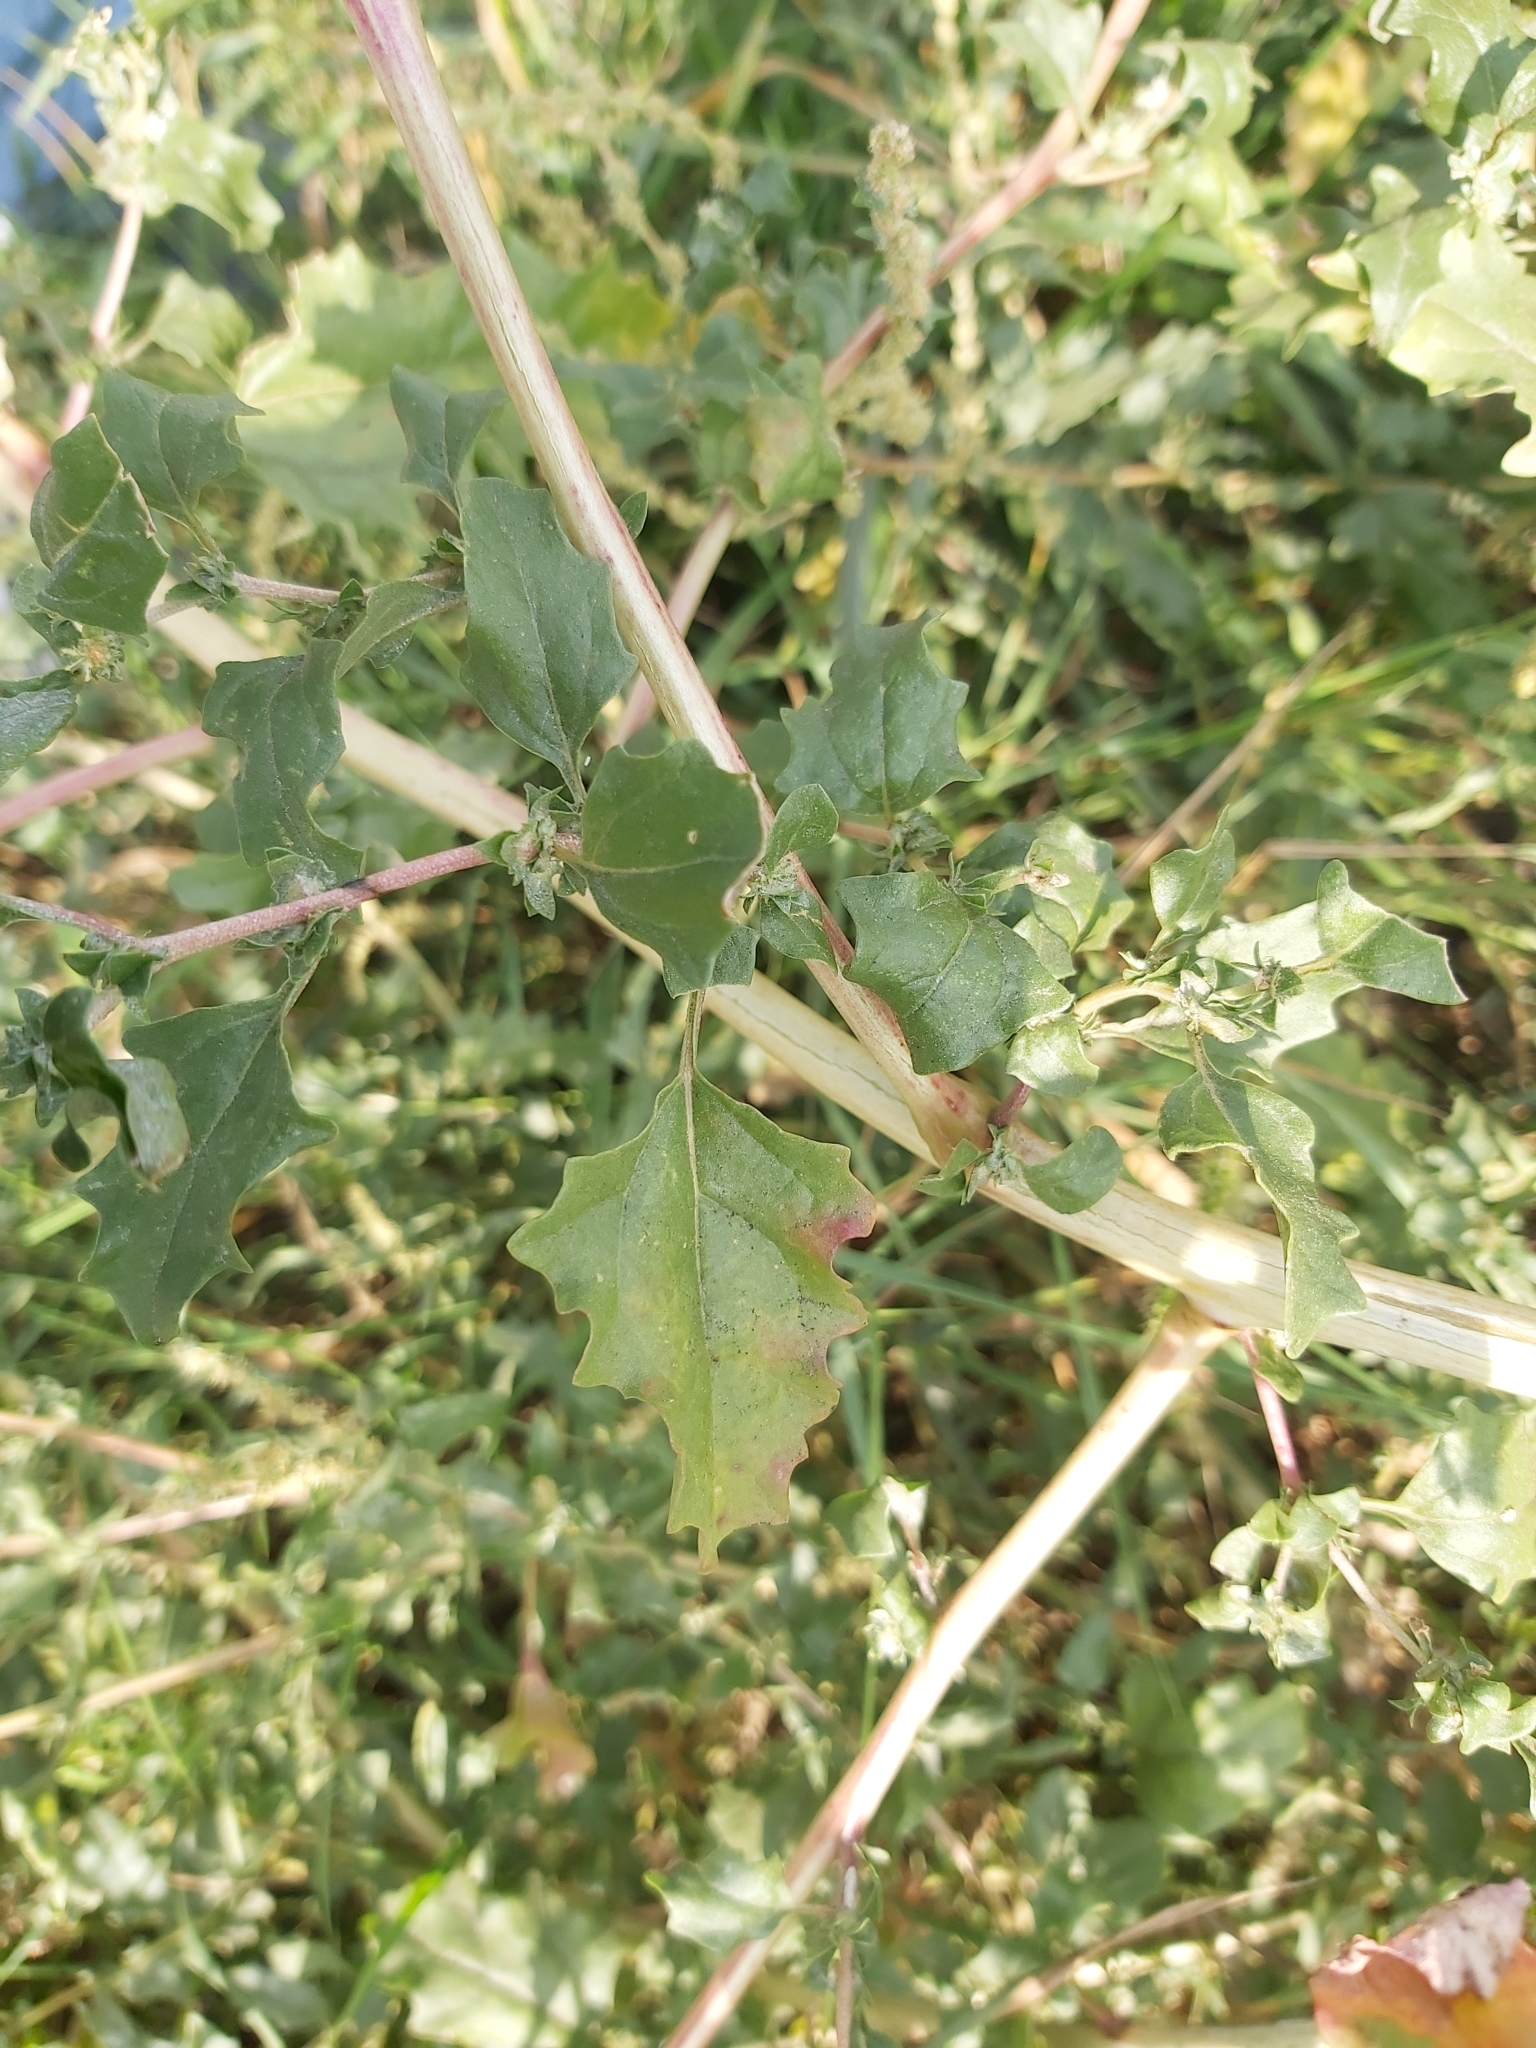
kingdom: Plantae
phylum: Tracheophyta
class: Magnoliopsida
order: Caryophyllales
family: Amaranthaceae
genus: Atriplex
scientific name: Atriplex tatarica
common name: Tatarian orache
